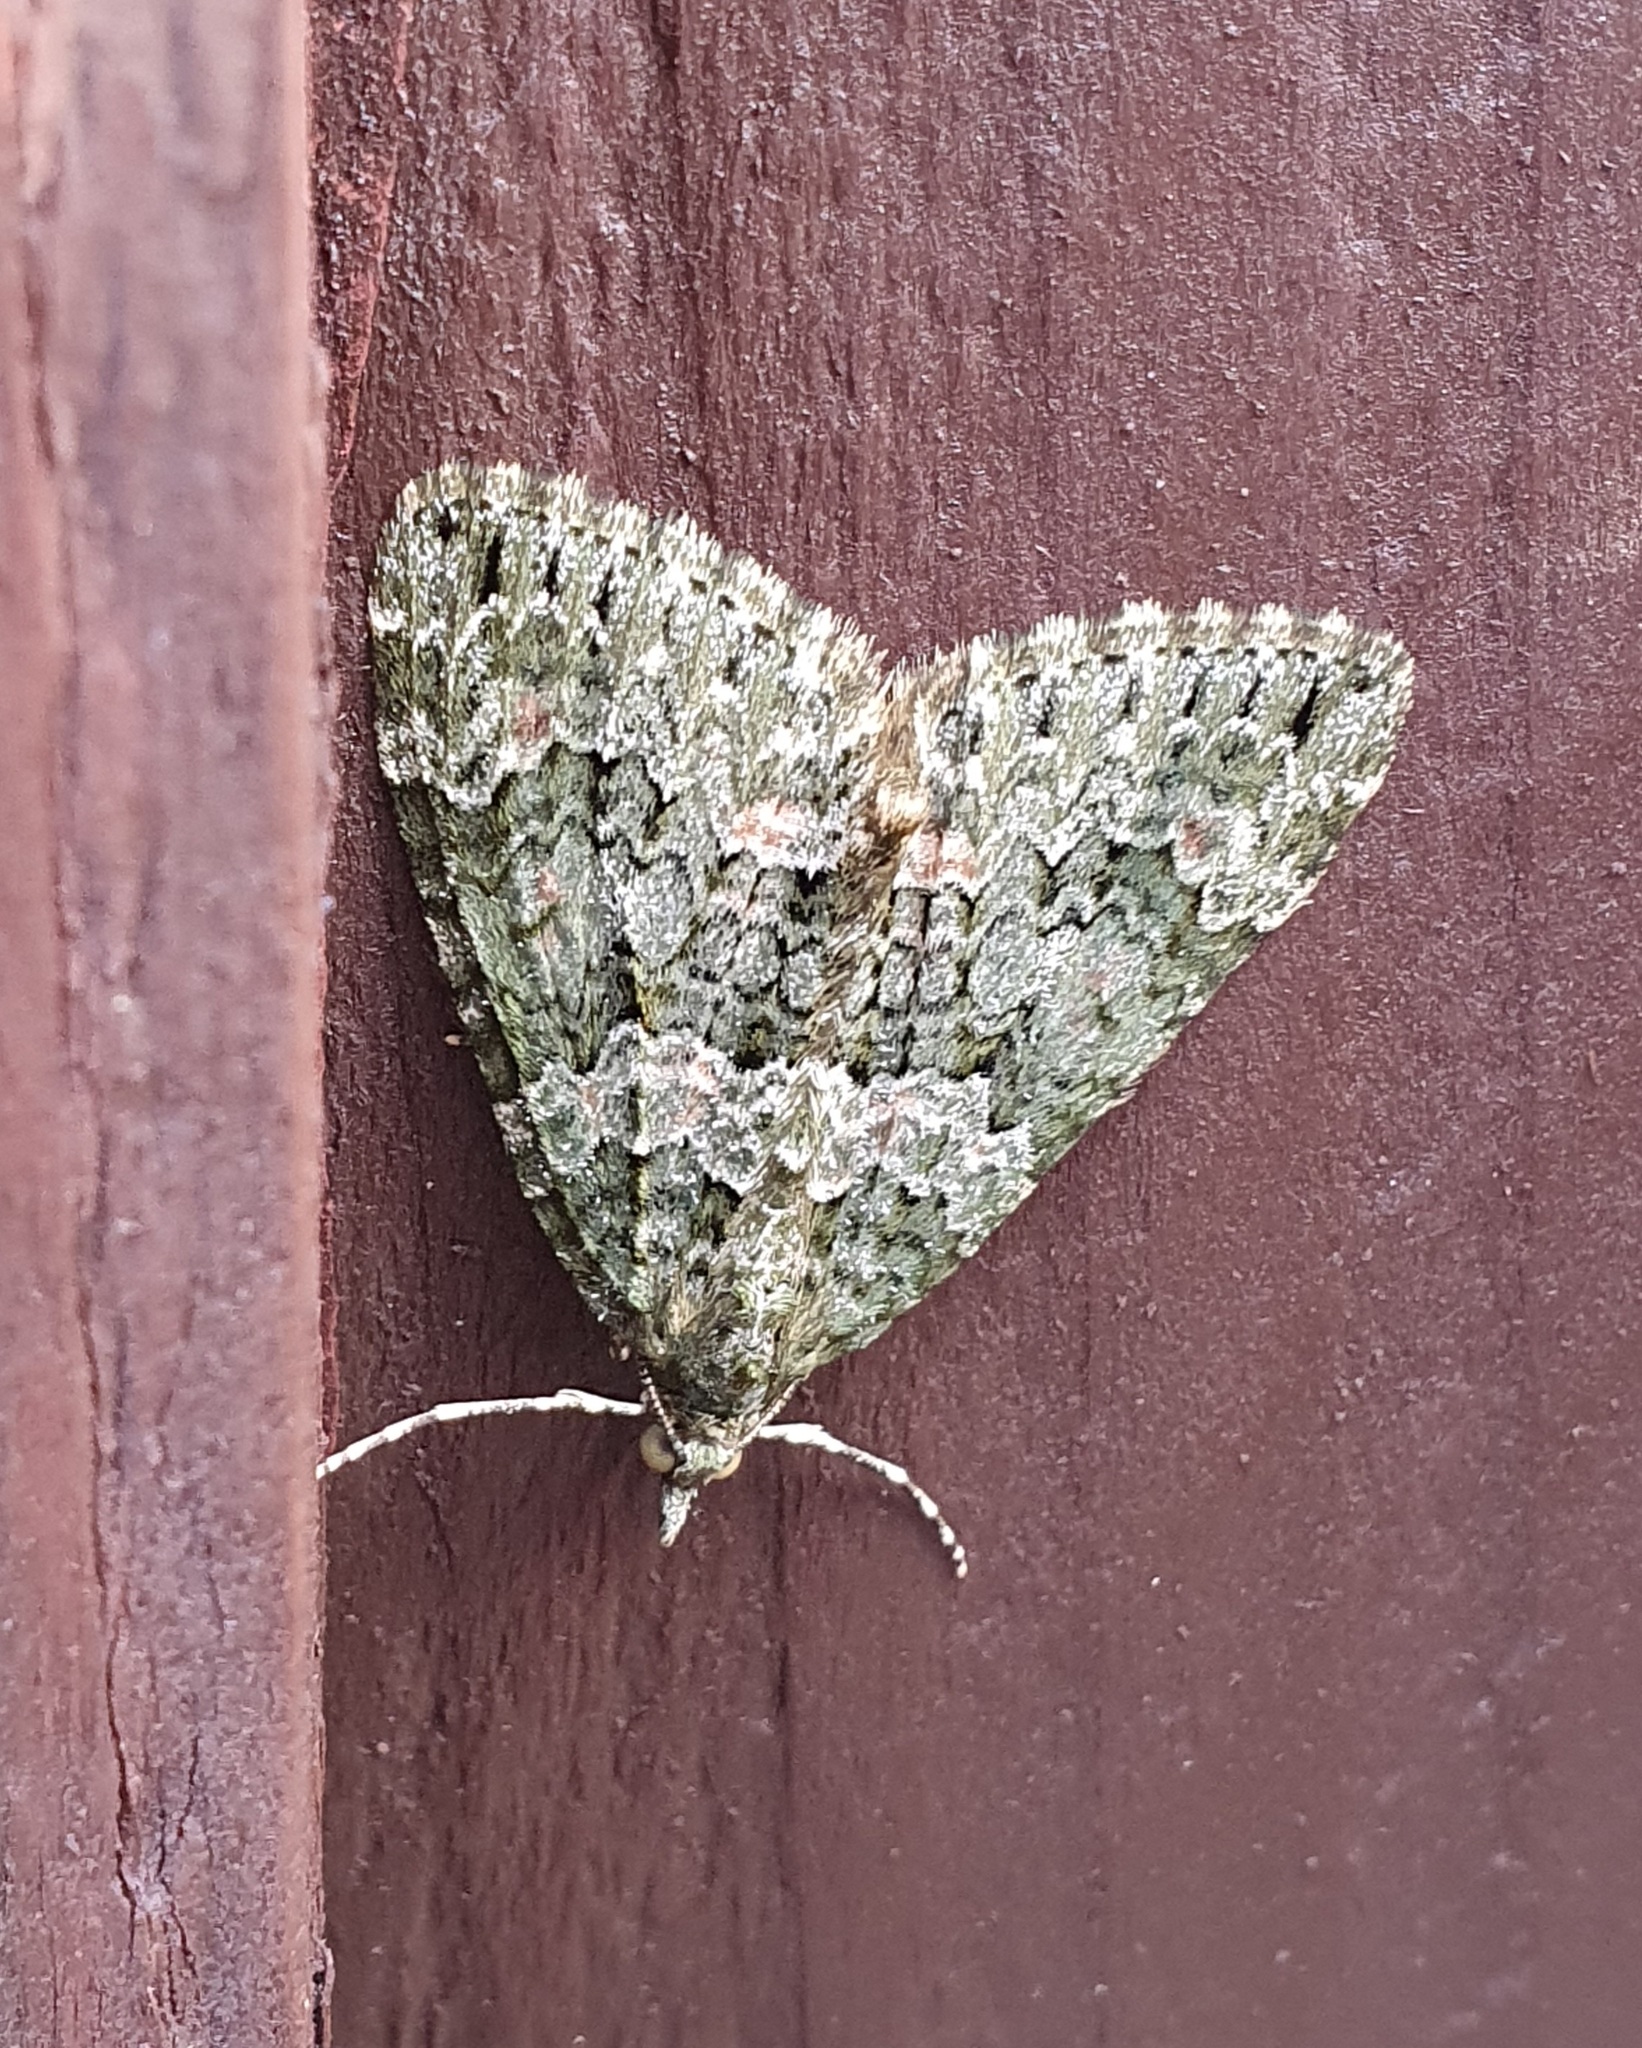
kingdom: Animalia
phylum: Arthropoda
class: Insecta
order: Lepidoptera
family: Geometridae
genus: Chloroclysta
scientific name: Chloroclysta miata
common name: Autumn green carpet
